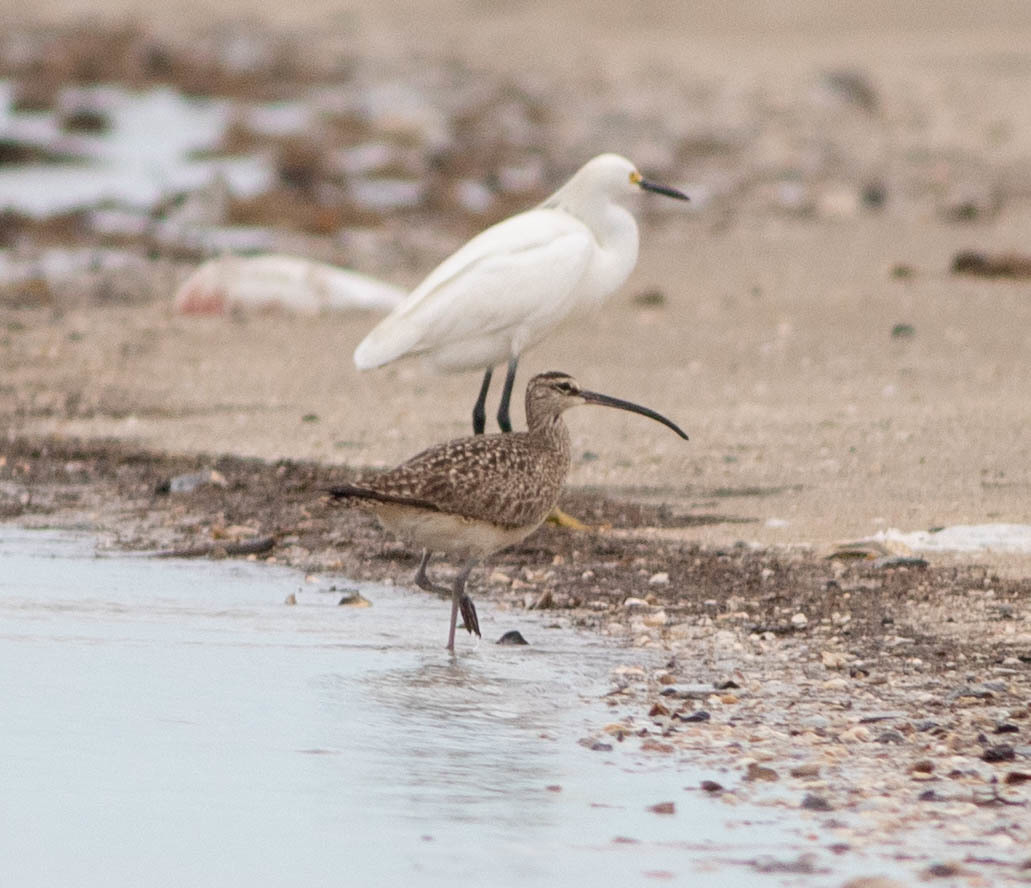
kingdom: Animalia
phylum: Chordata
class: Aves
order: Pelecaniformes
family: Ardeidae
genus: Egretta
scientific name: Egretta thula
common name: Snowy egret
